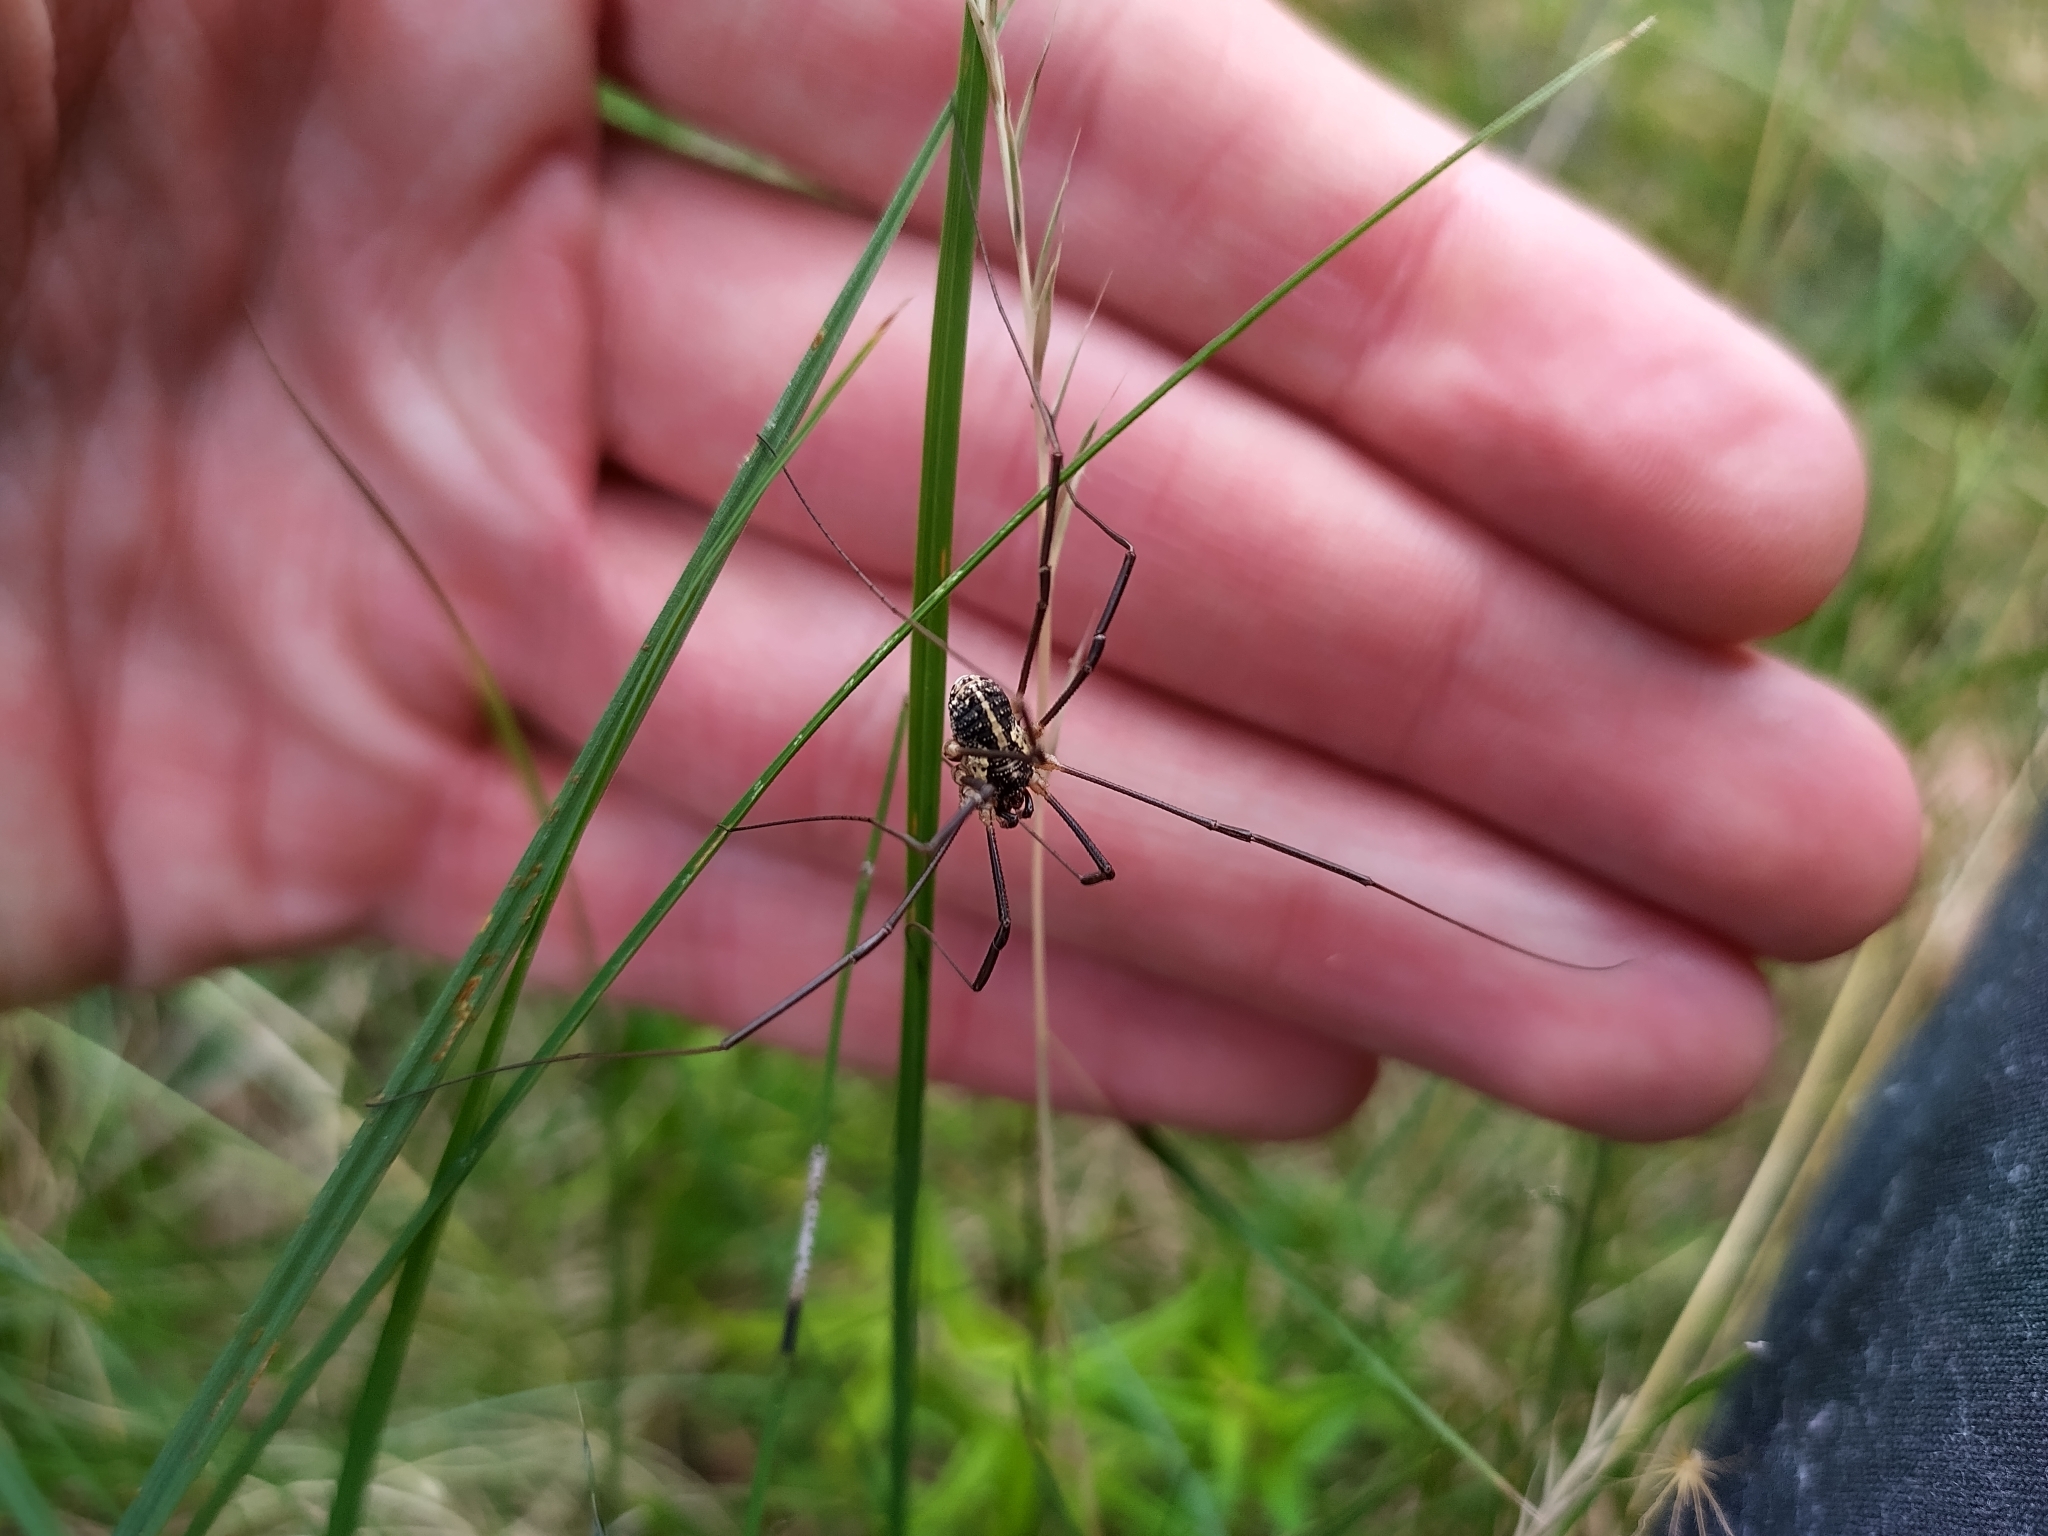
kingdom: Animalia
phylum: Arthropoda
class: Arachnida
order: Opiliones
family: Phalangiidae
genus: Mitopus
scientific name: Mitopus morio
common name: Saddleback harvestman
